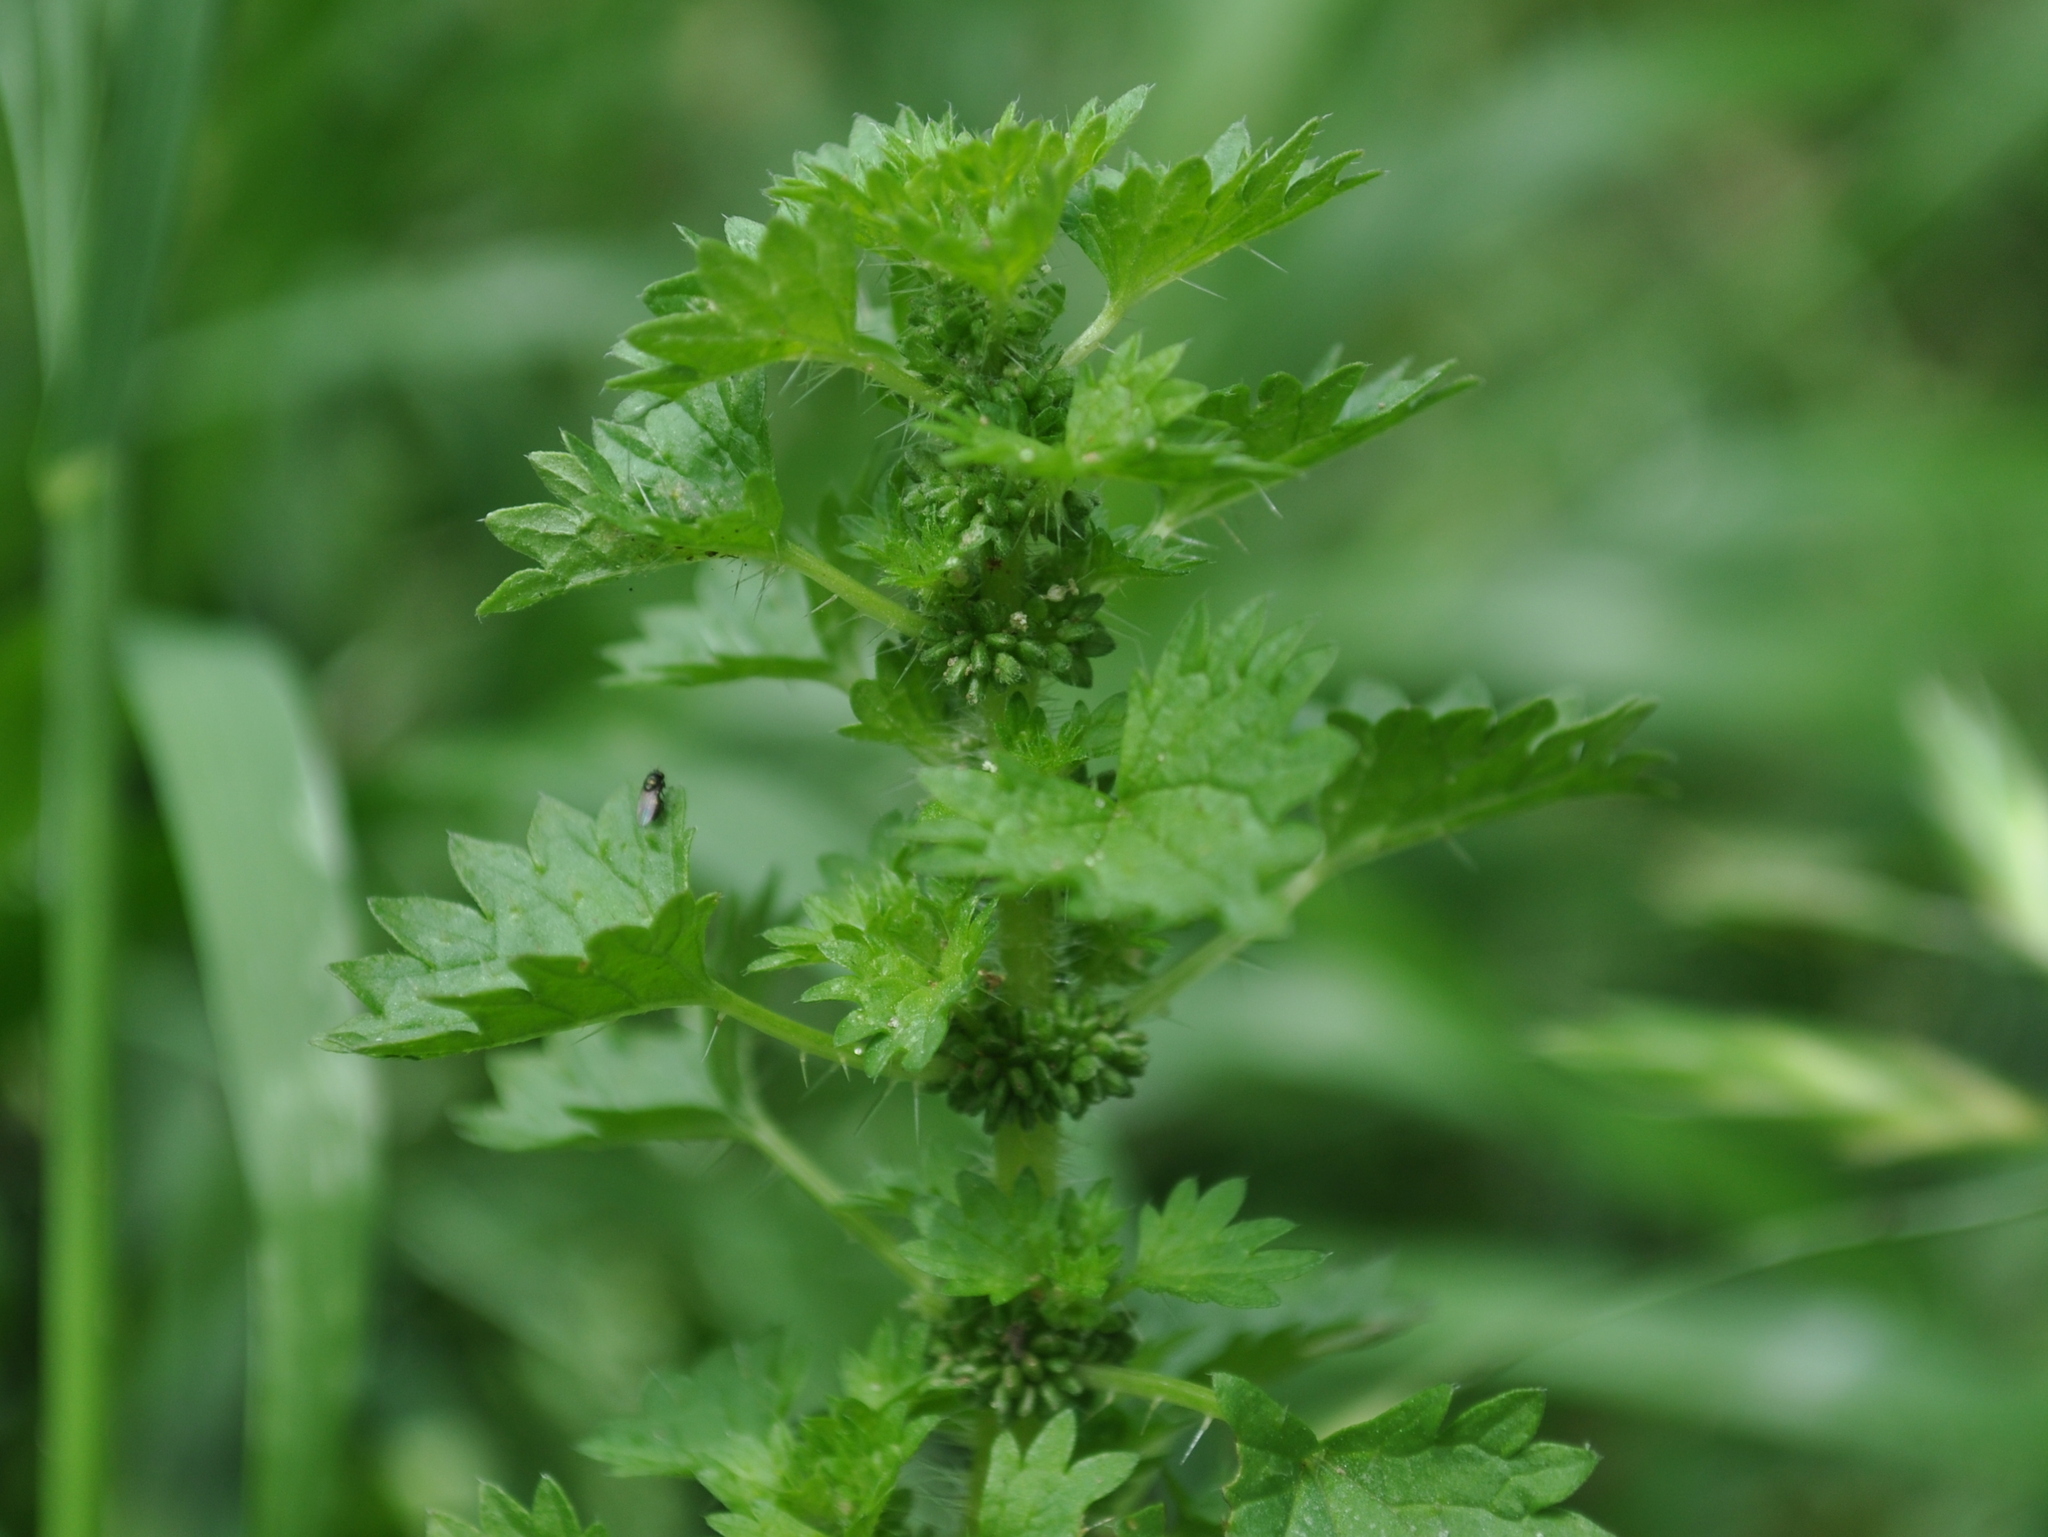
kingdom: Plantae
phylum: Tracheophyta
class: Magnoliopsida
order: Rosales
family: Urticaceae
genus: Urtica
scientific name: Urtica circularis
